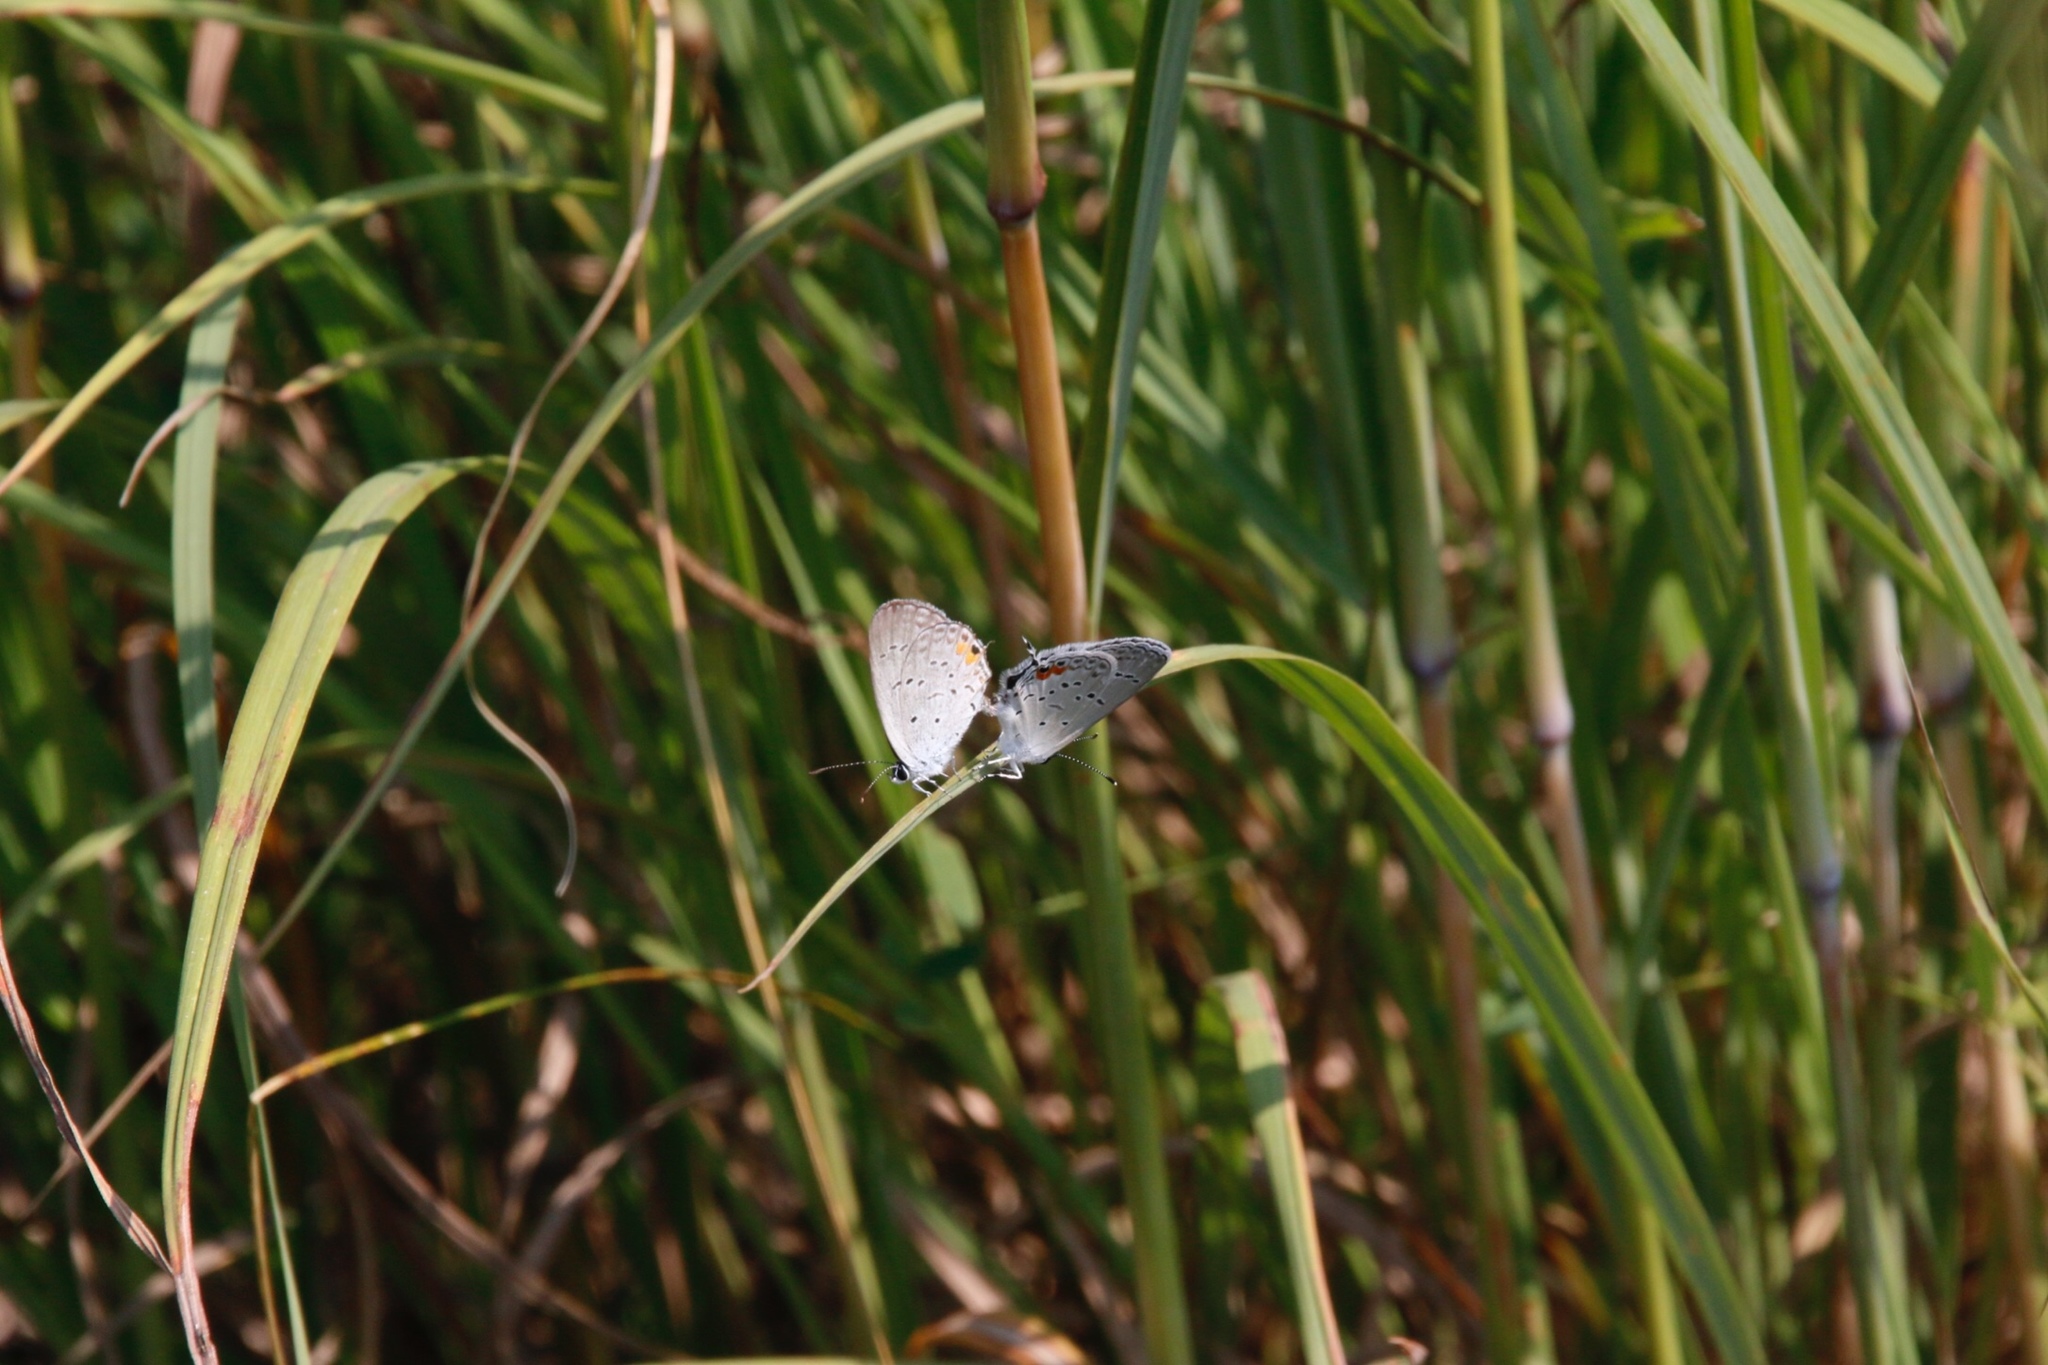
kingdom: Animalia
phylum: Arthropoda
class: Insecta
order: Lepidoptera
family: Lycaenidae
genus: Elkalyce
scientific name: Elkalyce comyntas
